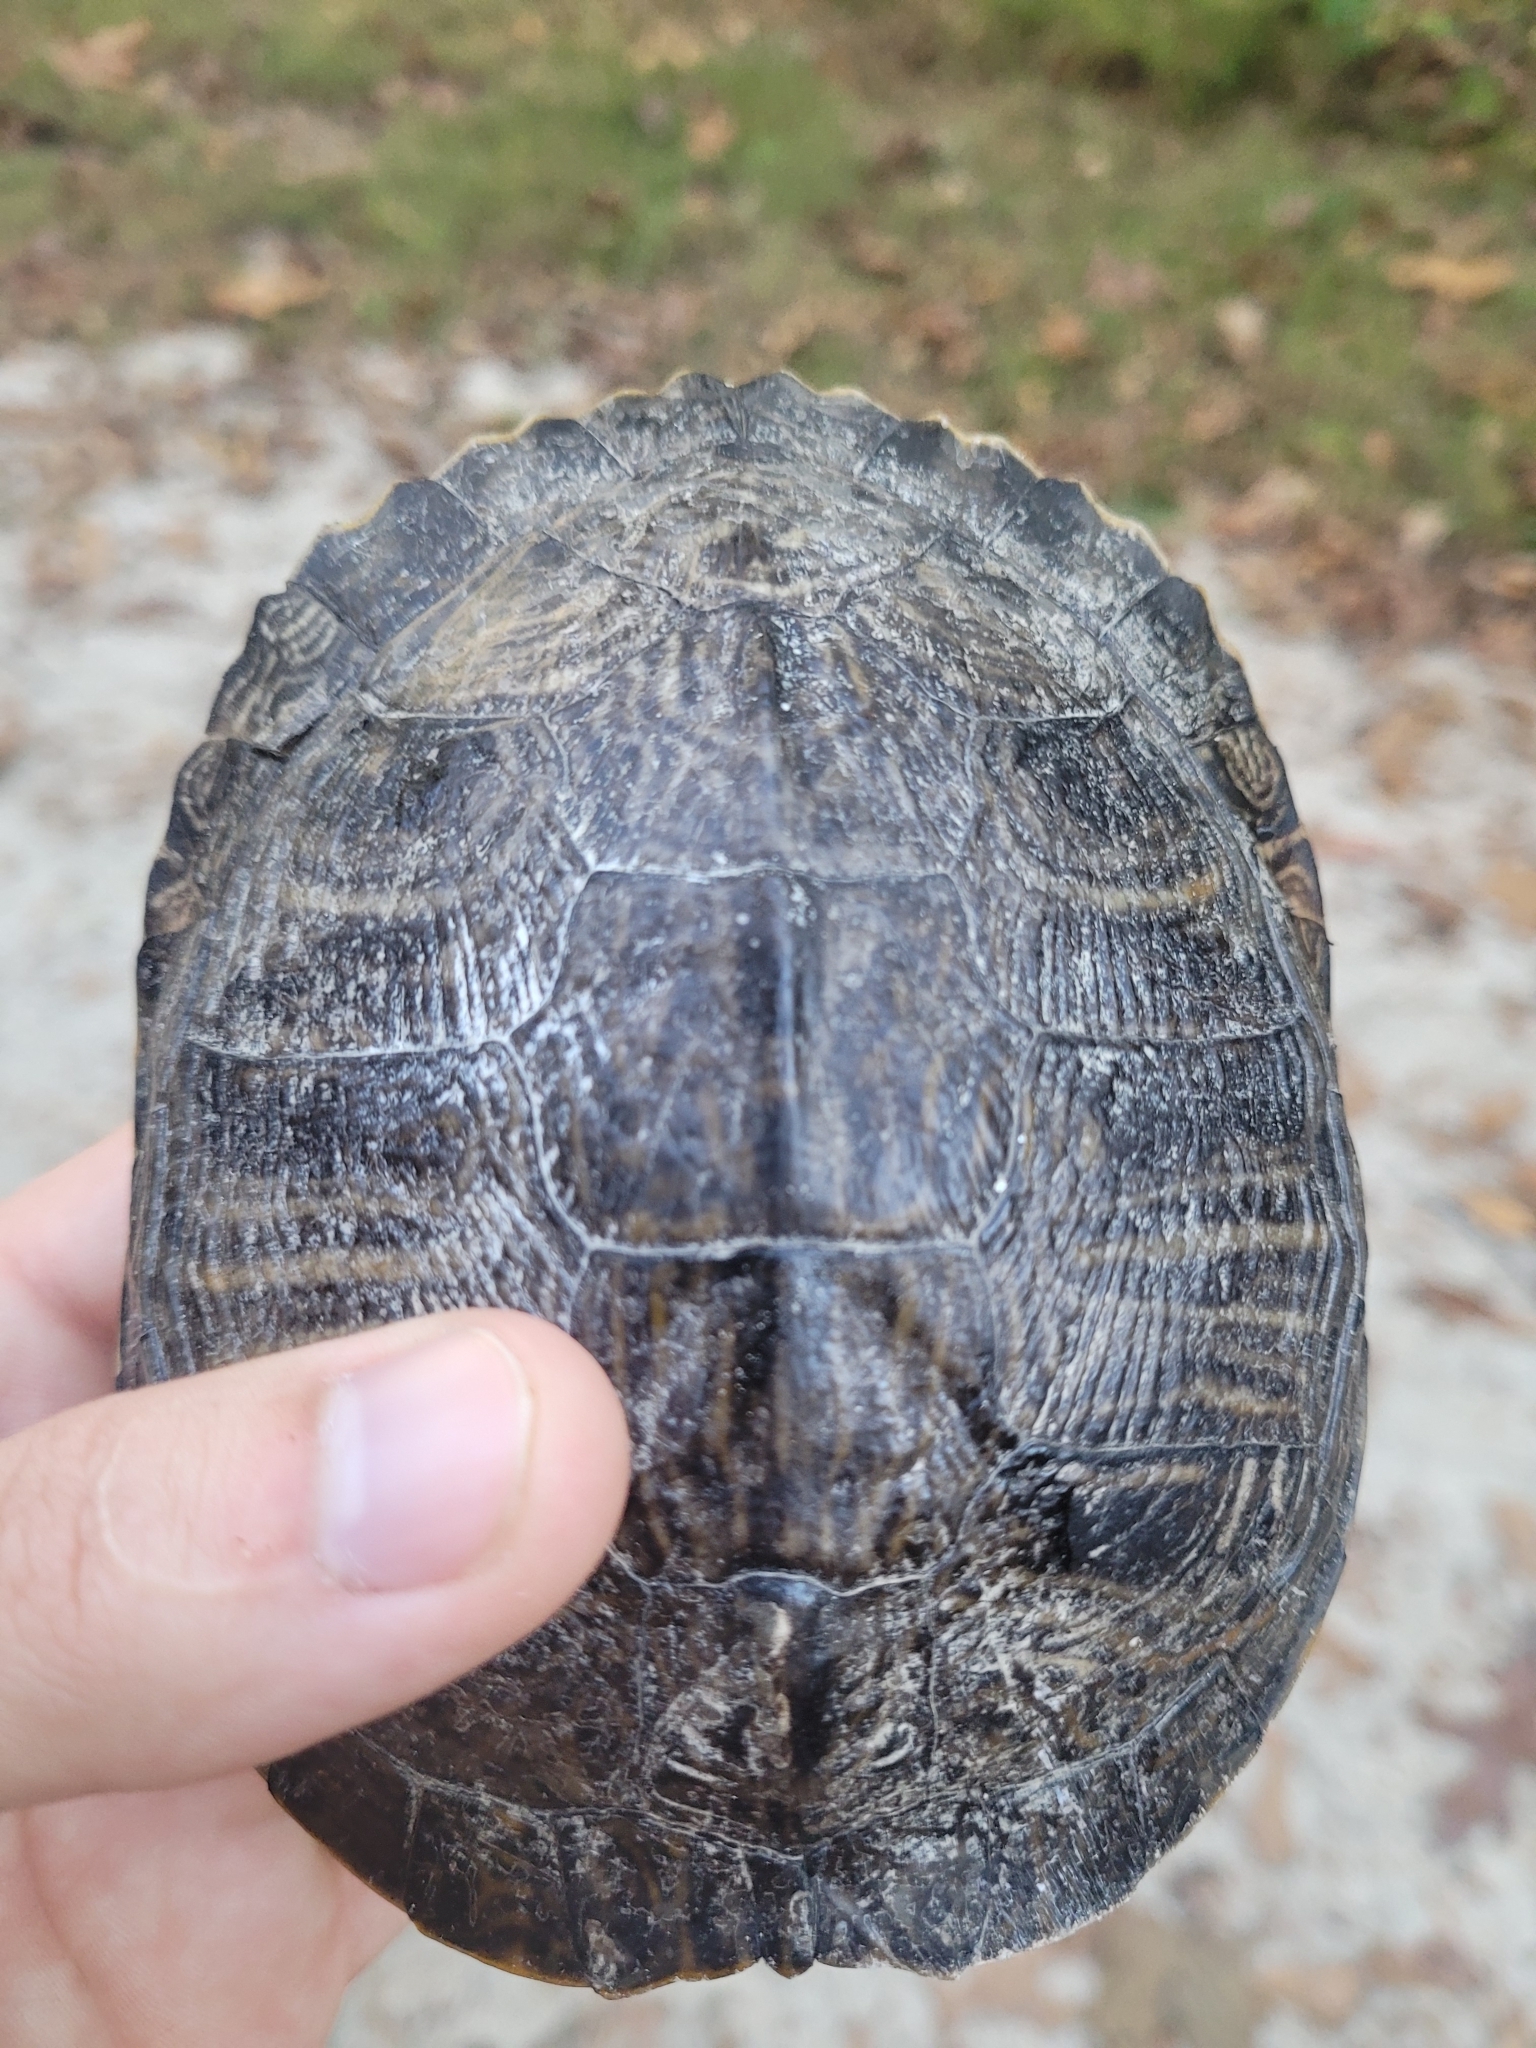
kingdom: Animalia
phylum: Chordata
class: Testudines
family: Emydidae
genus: Trachemys
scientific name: Trachemys scripta
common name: Slider
